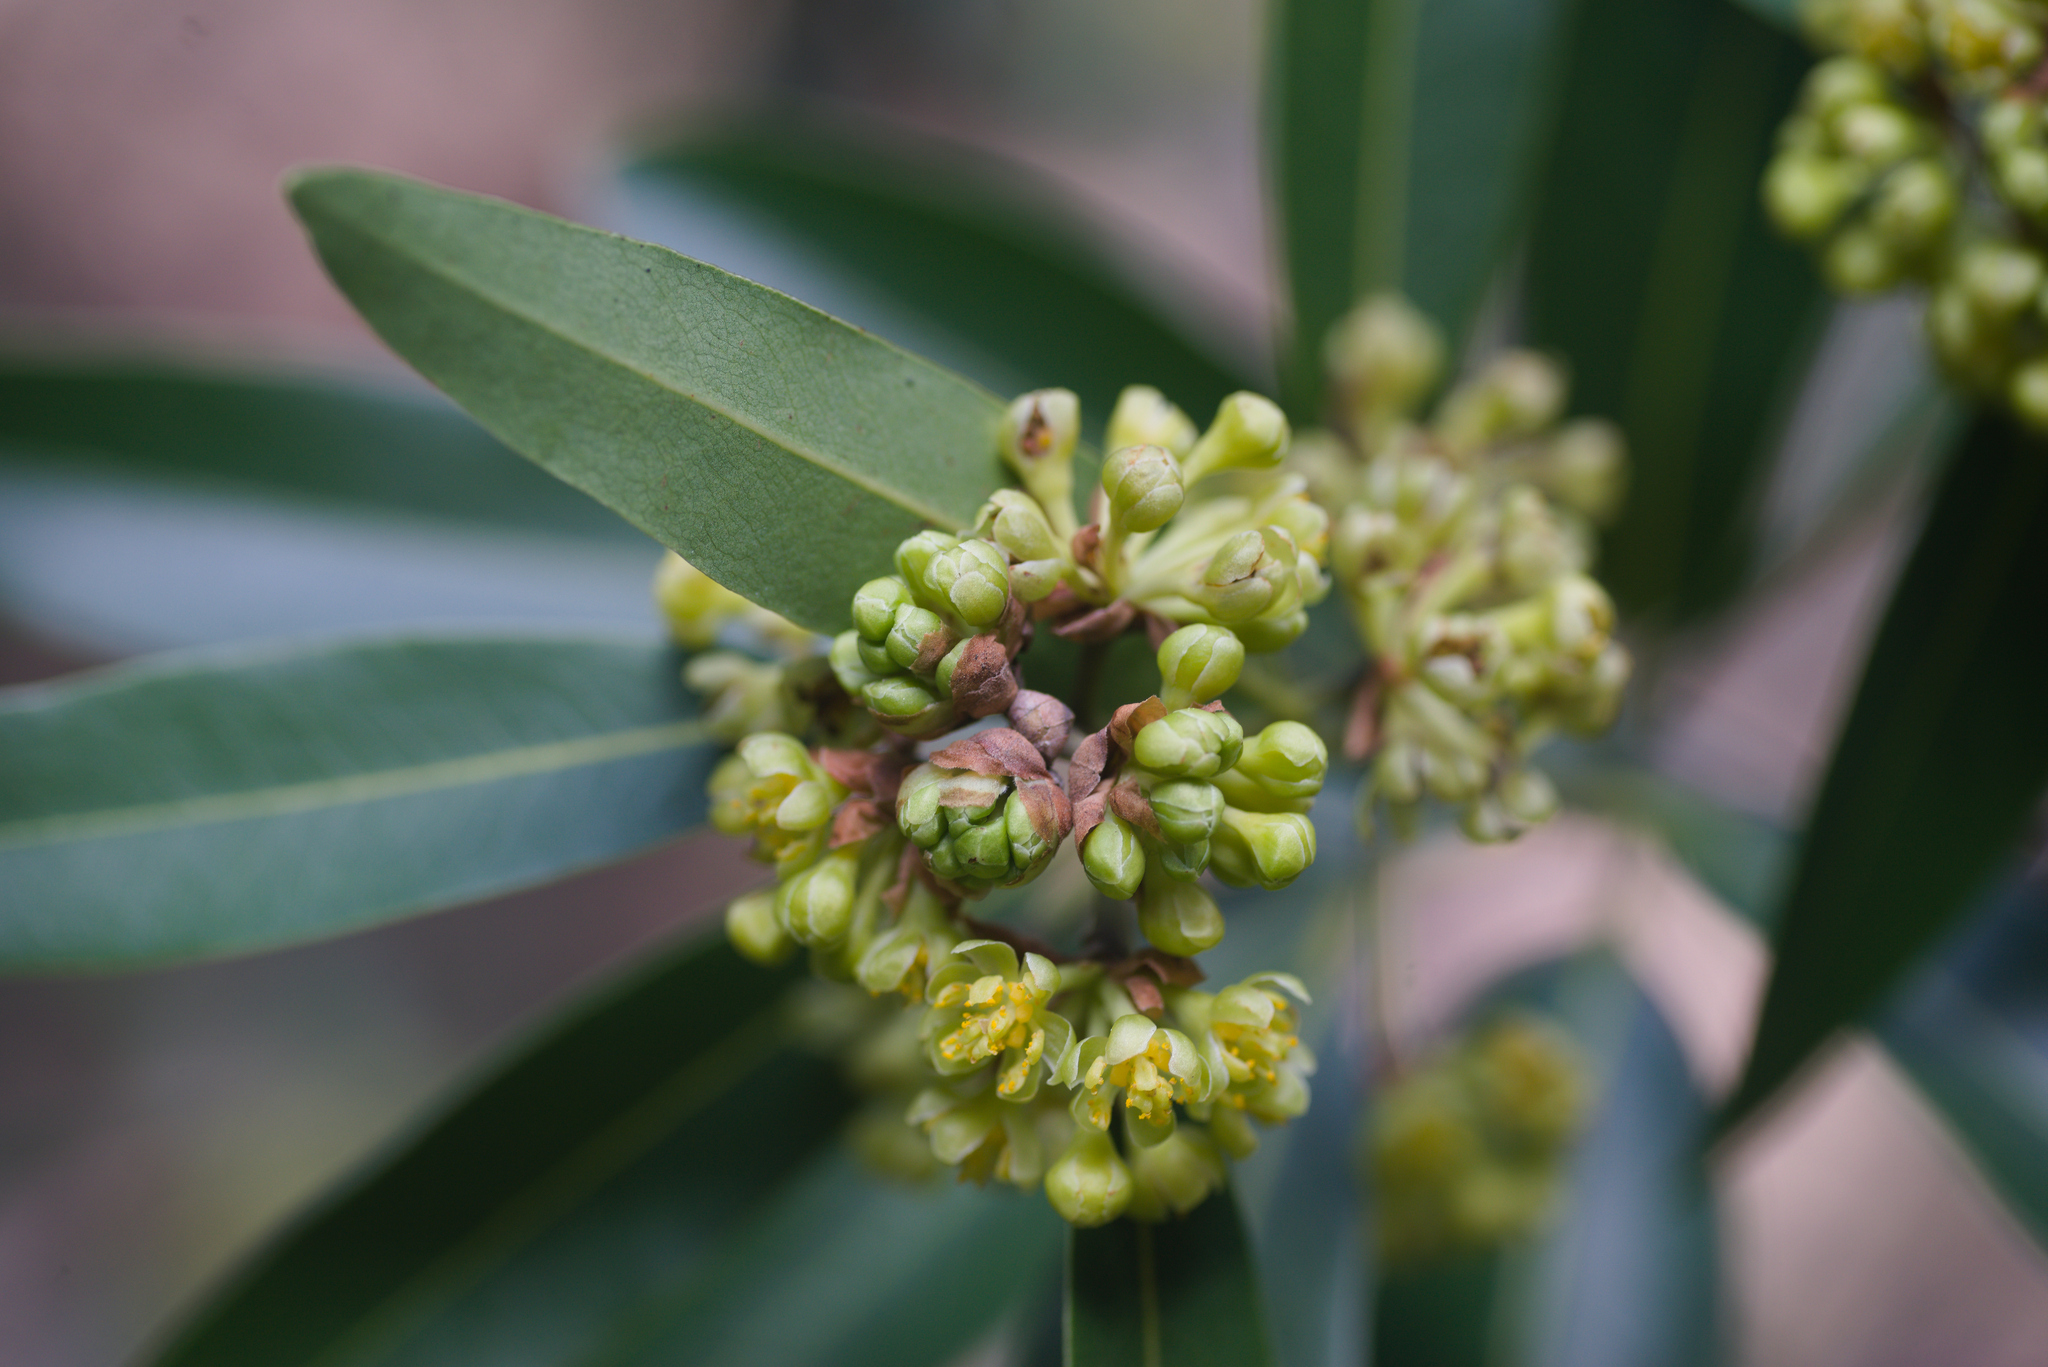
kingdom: Plantae
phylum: Tracheophyta
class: Magnoliopsida
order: Laurales
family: Lauraceae
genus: Umbellularia
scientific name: Umbellularia californica
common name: California bay
